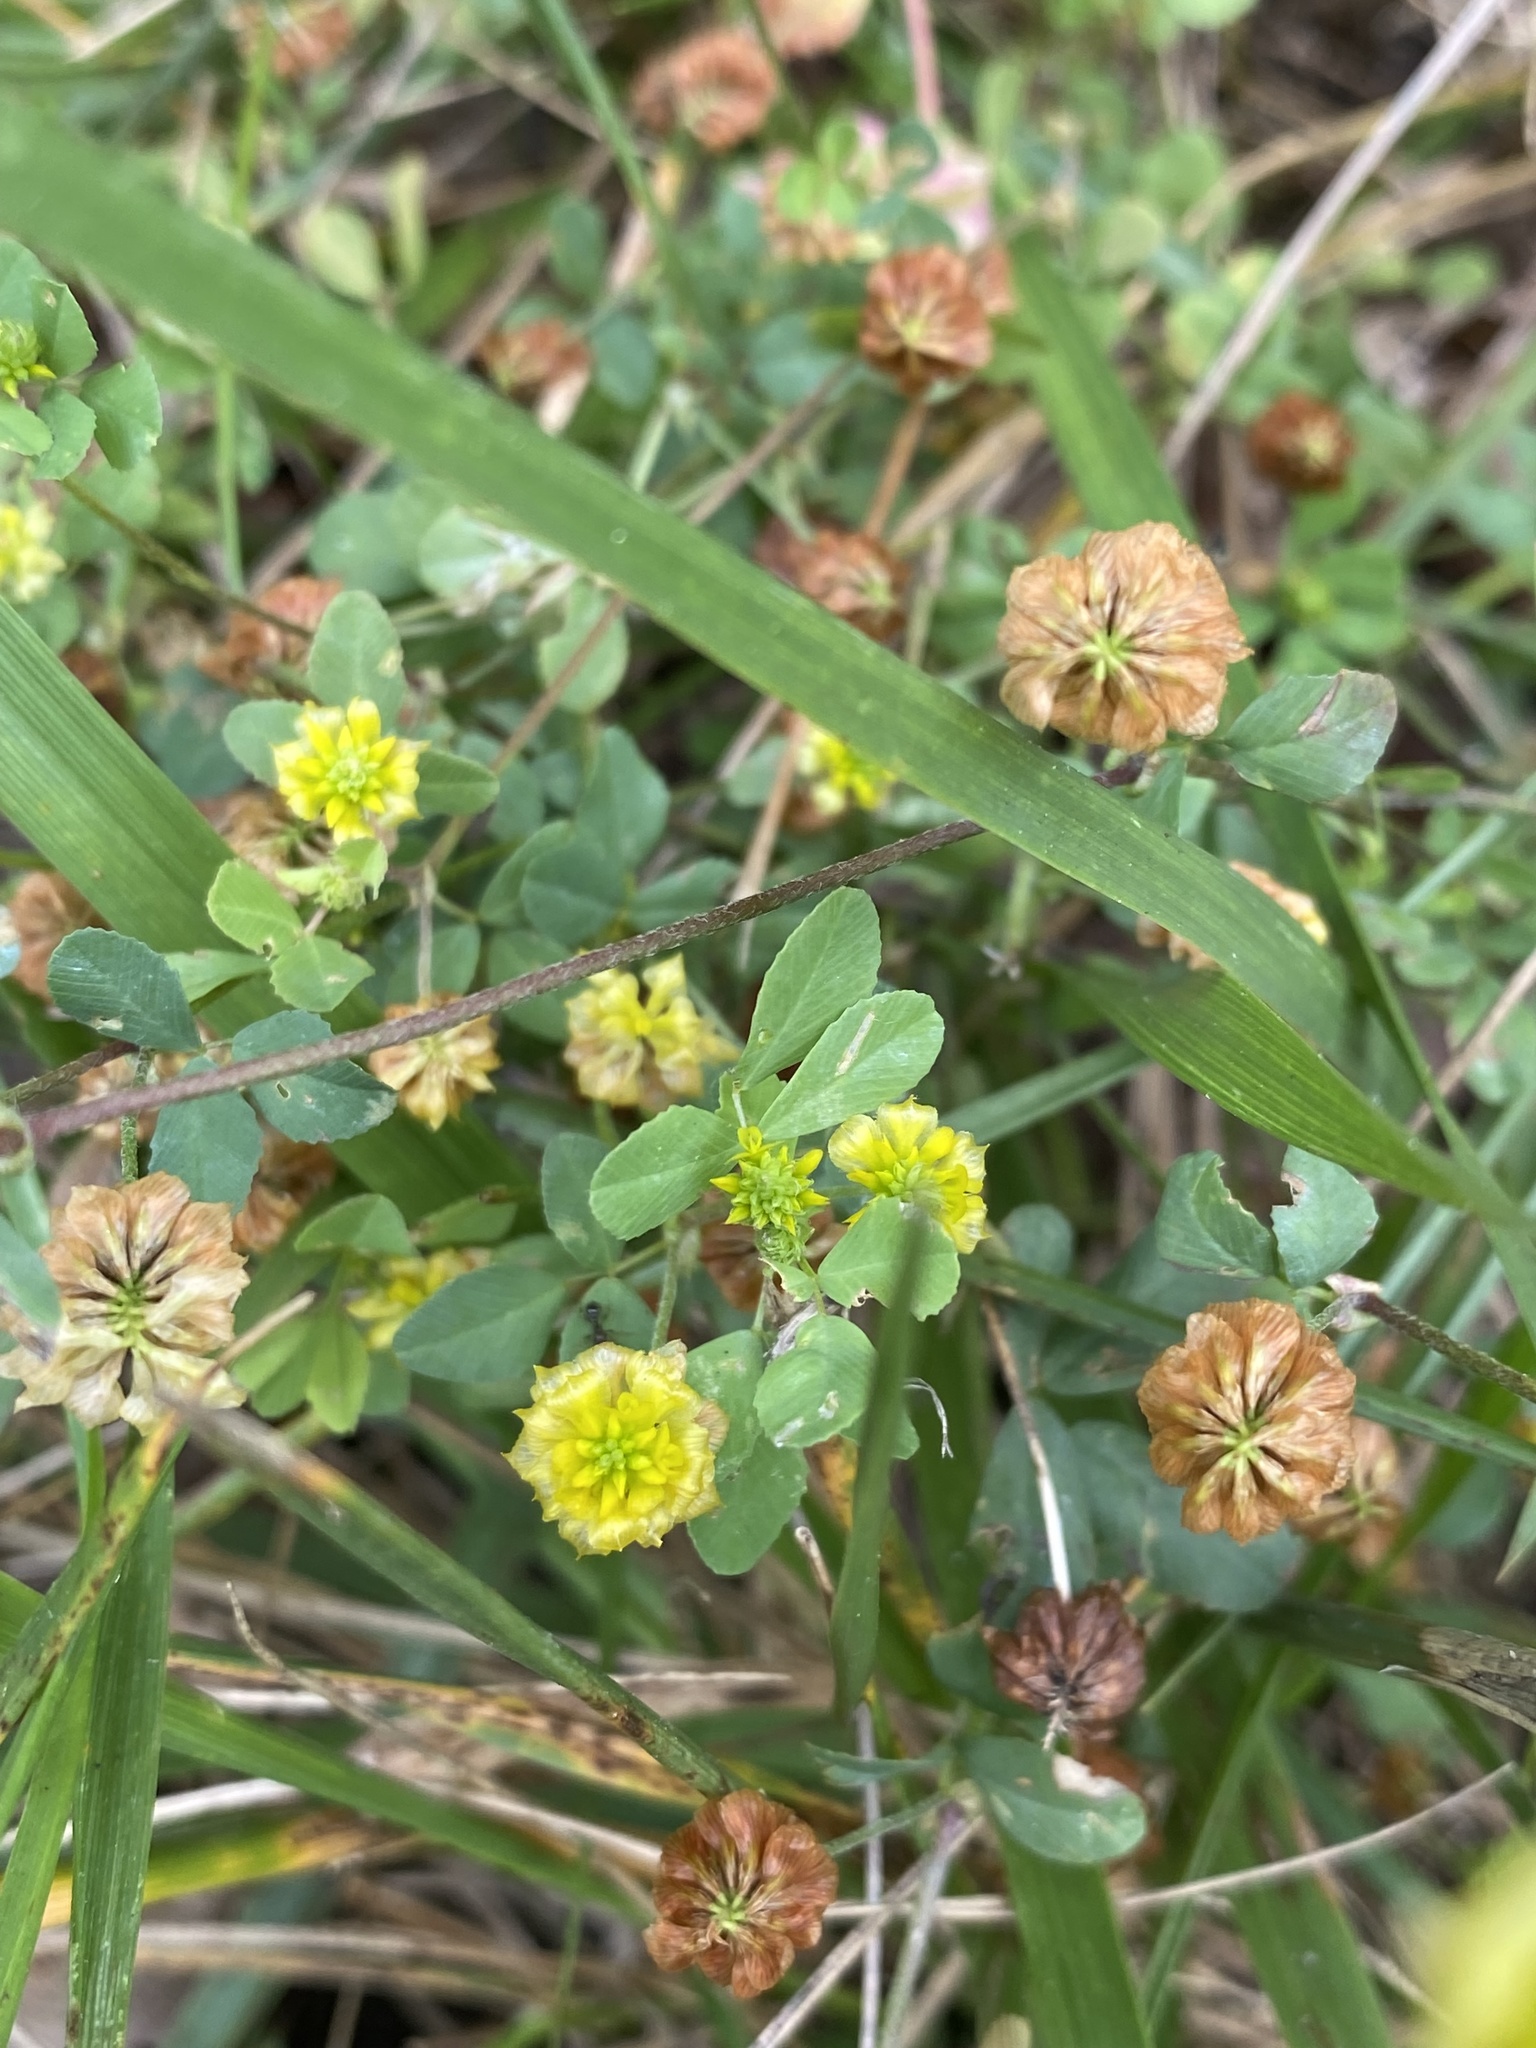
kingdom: Plantae
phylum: Tracheophyta
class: Magnoliopsida
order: Fabales
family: Fabaceae
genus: Trifolium
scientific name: Trifolium campestre
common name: Field clover
